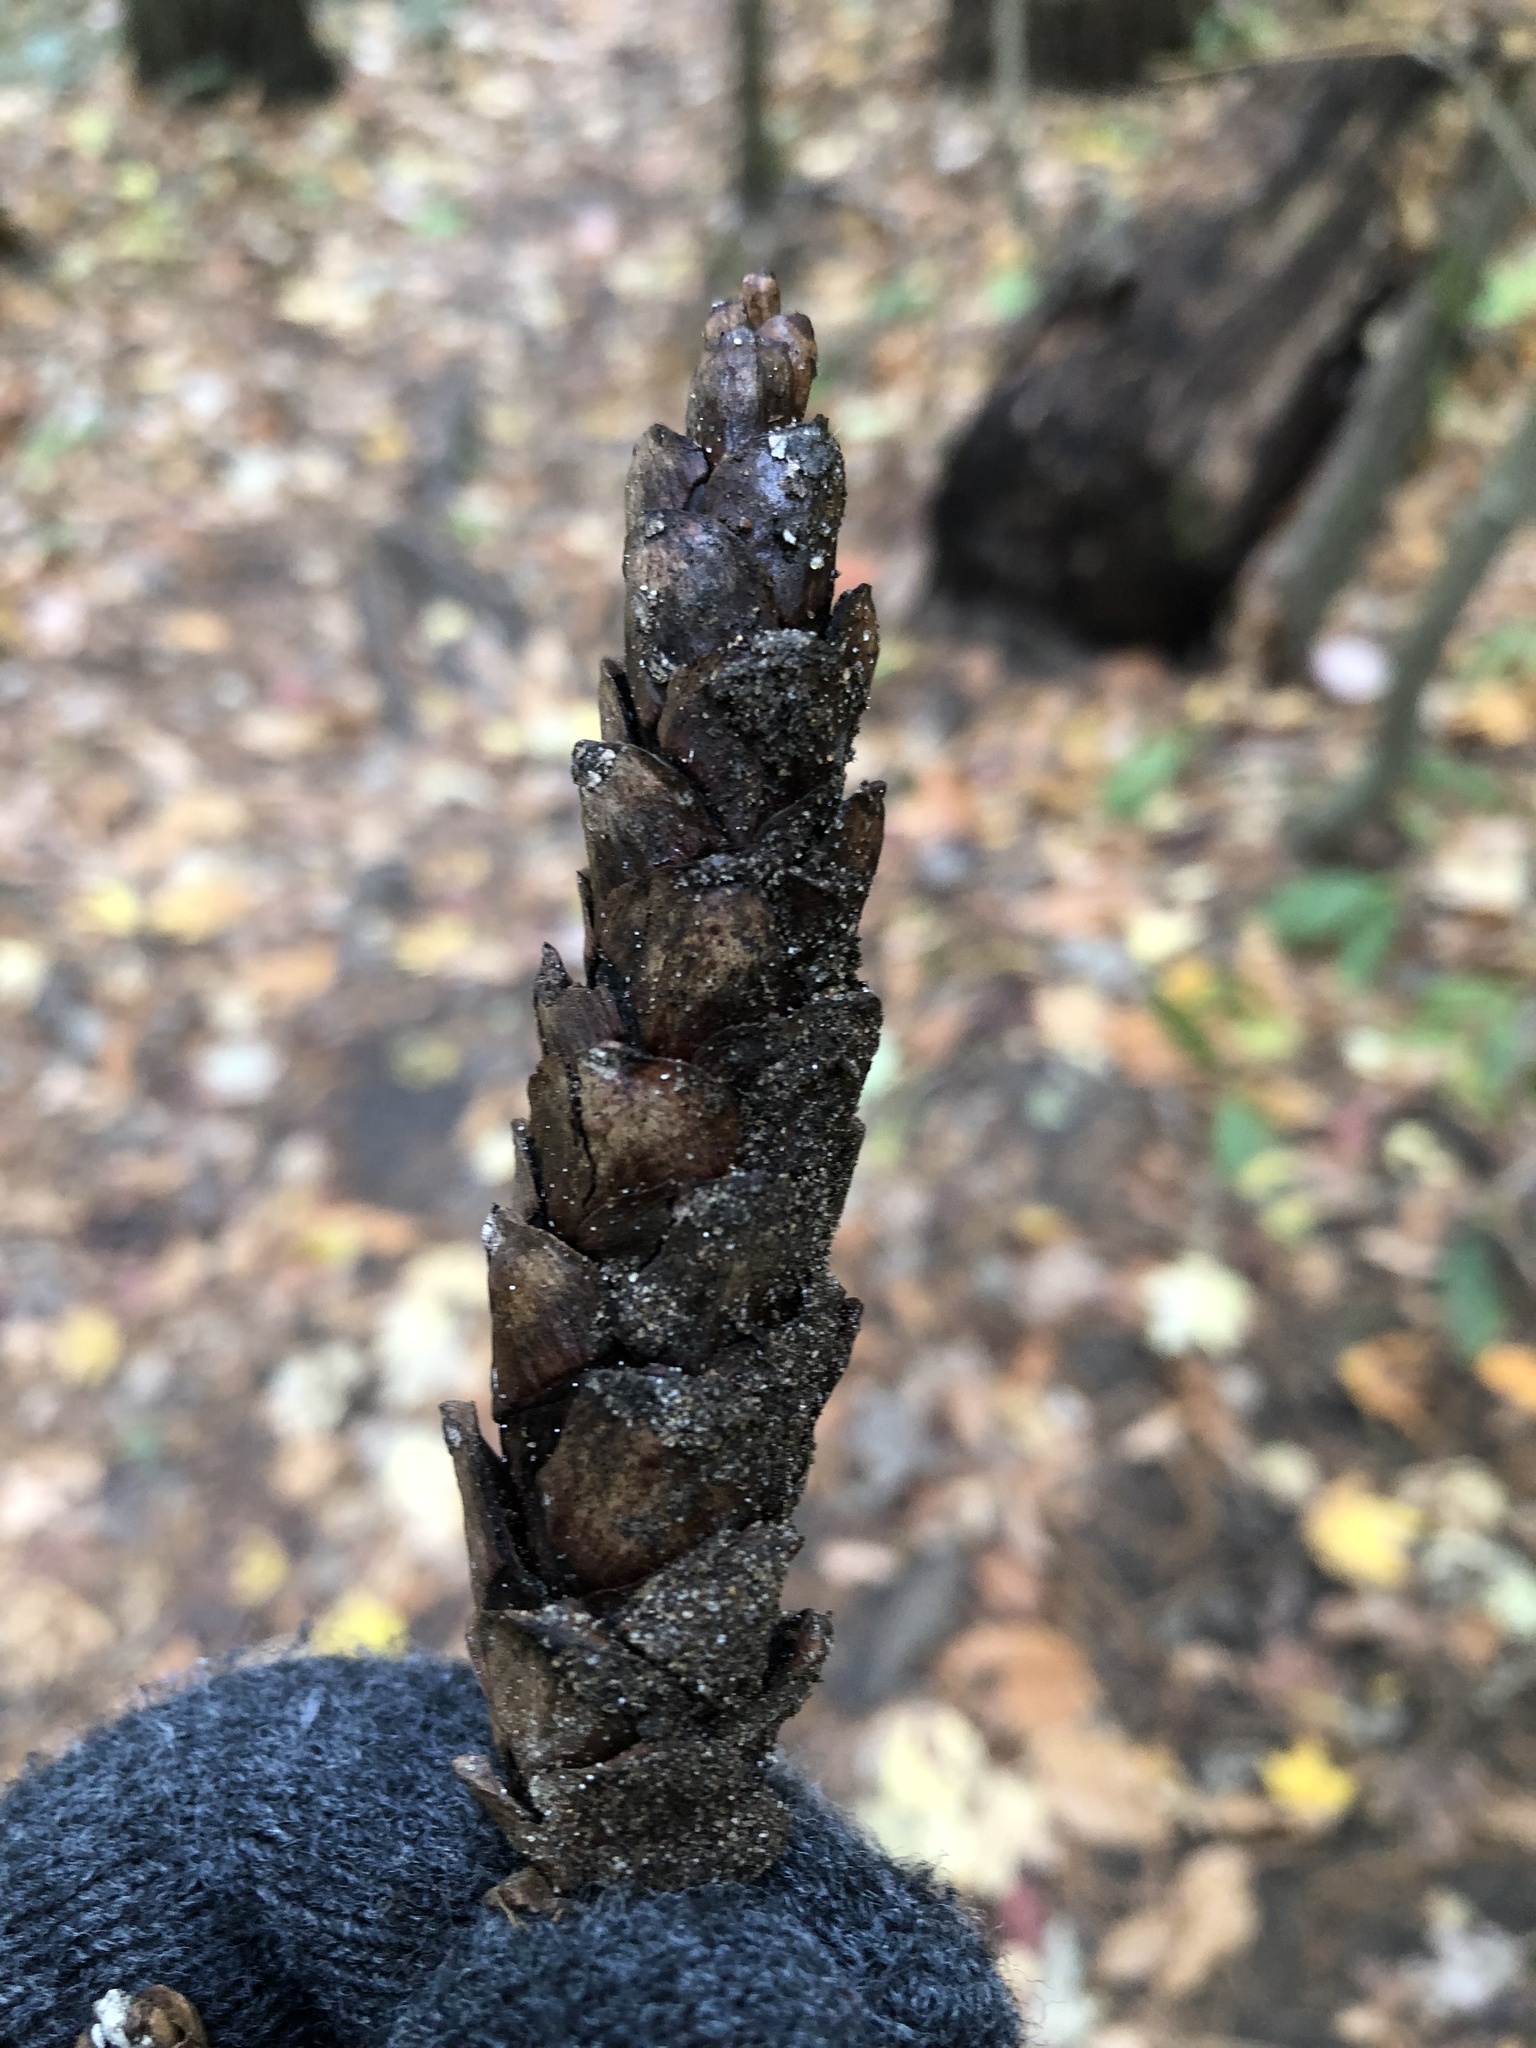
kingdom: Plantae
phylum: Tracheophyta
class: Pinopsida
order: Pinales
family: Pinaceae
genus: Pinus
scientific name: Pinus strobus
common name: Weymouth pine
